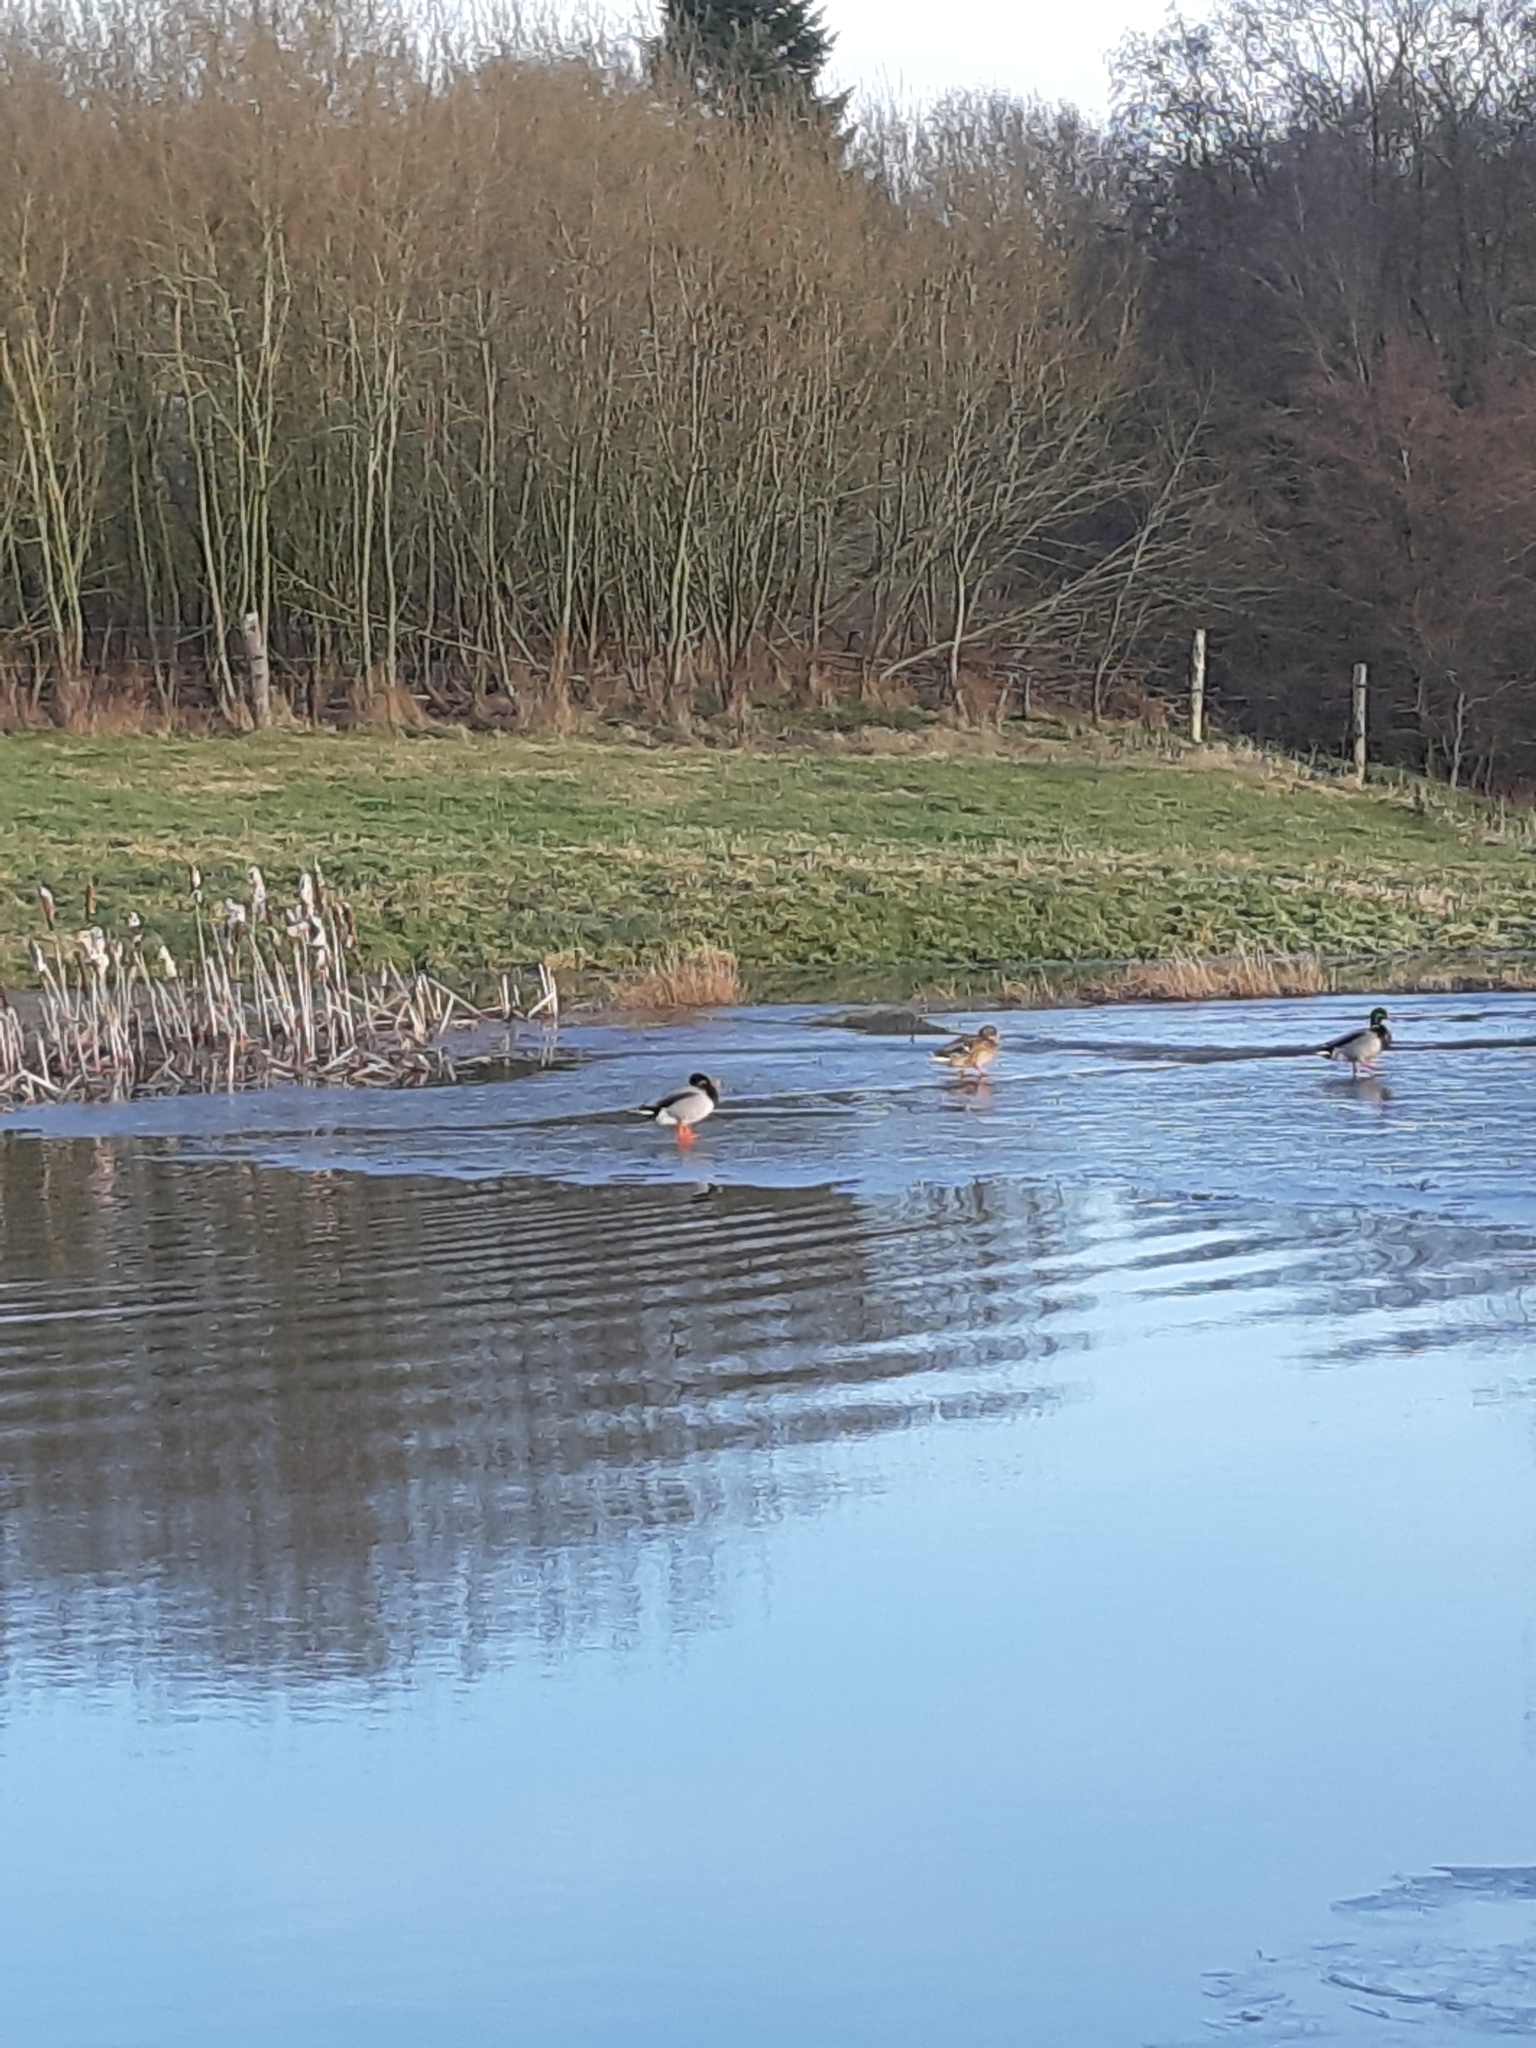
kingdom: Animalia
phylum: Chordata
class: Aves
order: Anseriformes
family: Anatidae
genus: Anas
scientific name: Anas platyrhynchos
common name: Mallard
